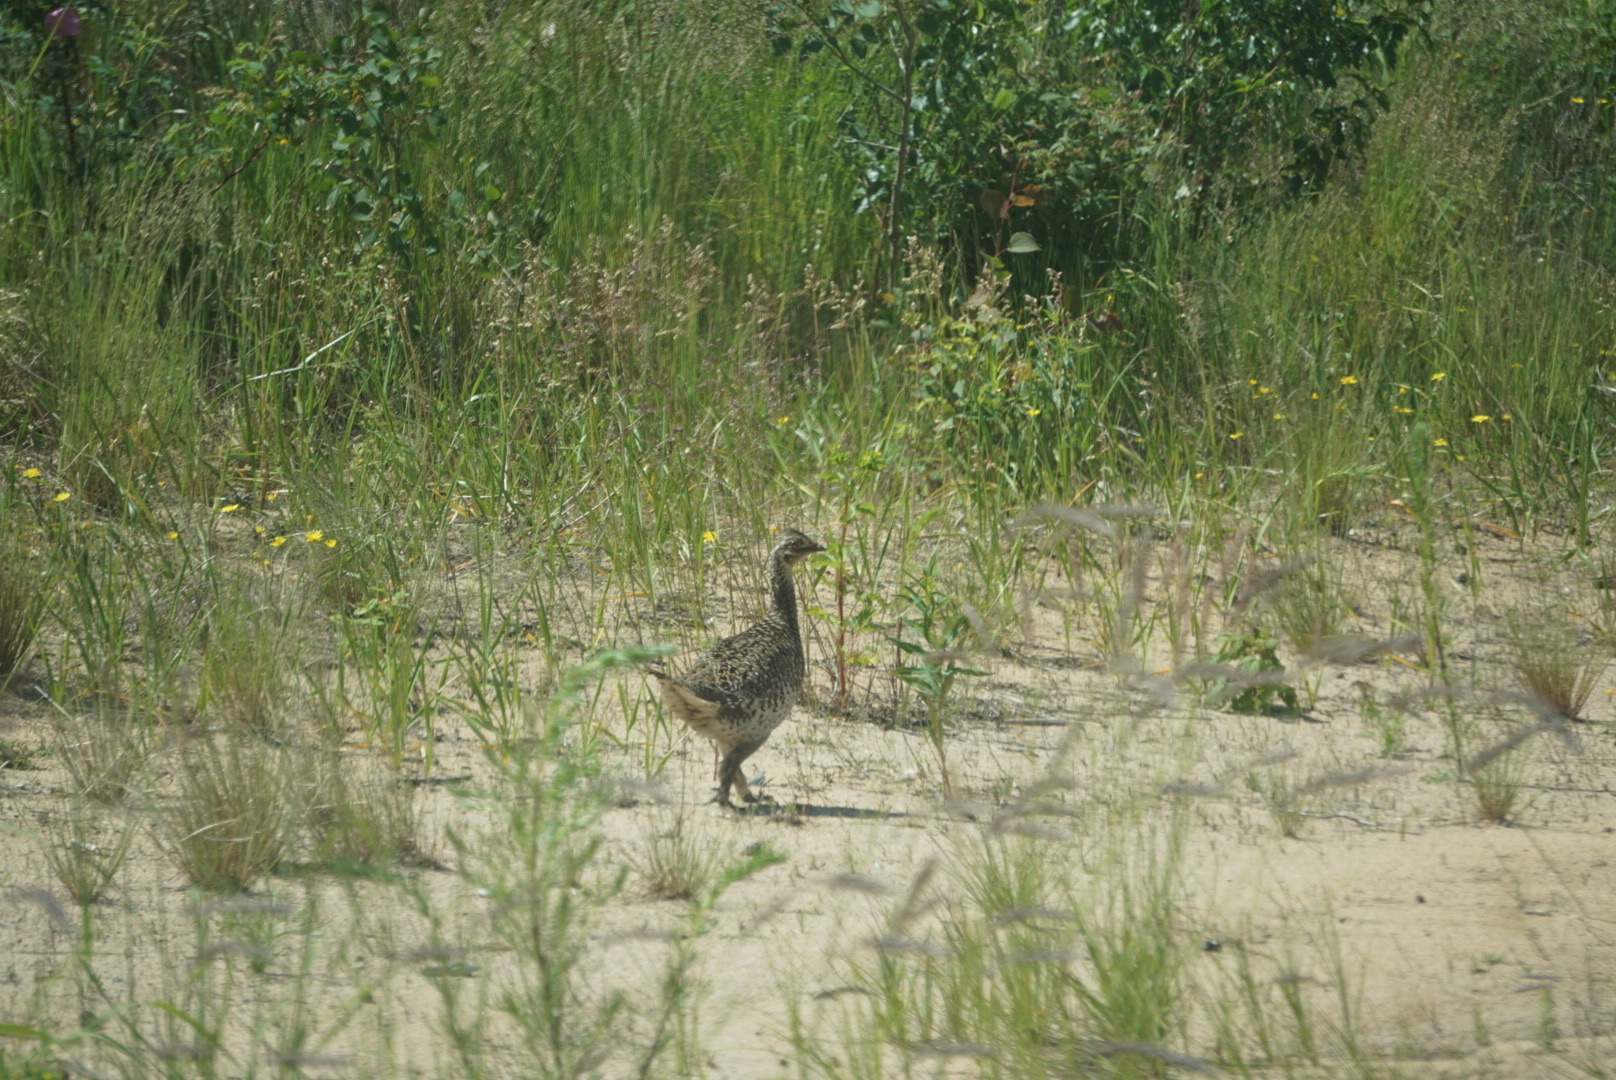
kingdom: Animalia
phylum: Chordata
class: Aves
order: Galliformes
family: Phasianidae
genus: Tympanuchus
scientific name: Tympanuchus phasianellus
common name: Sharp-tailed grouse
